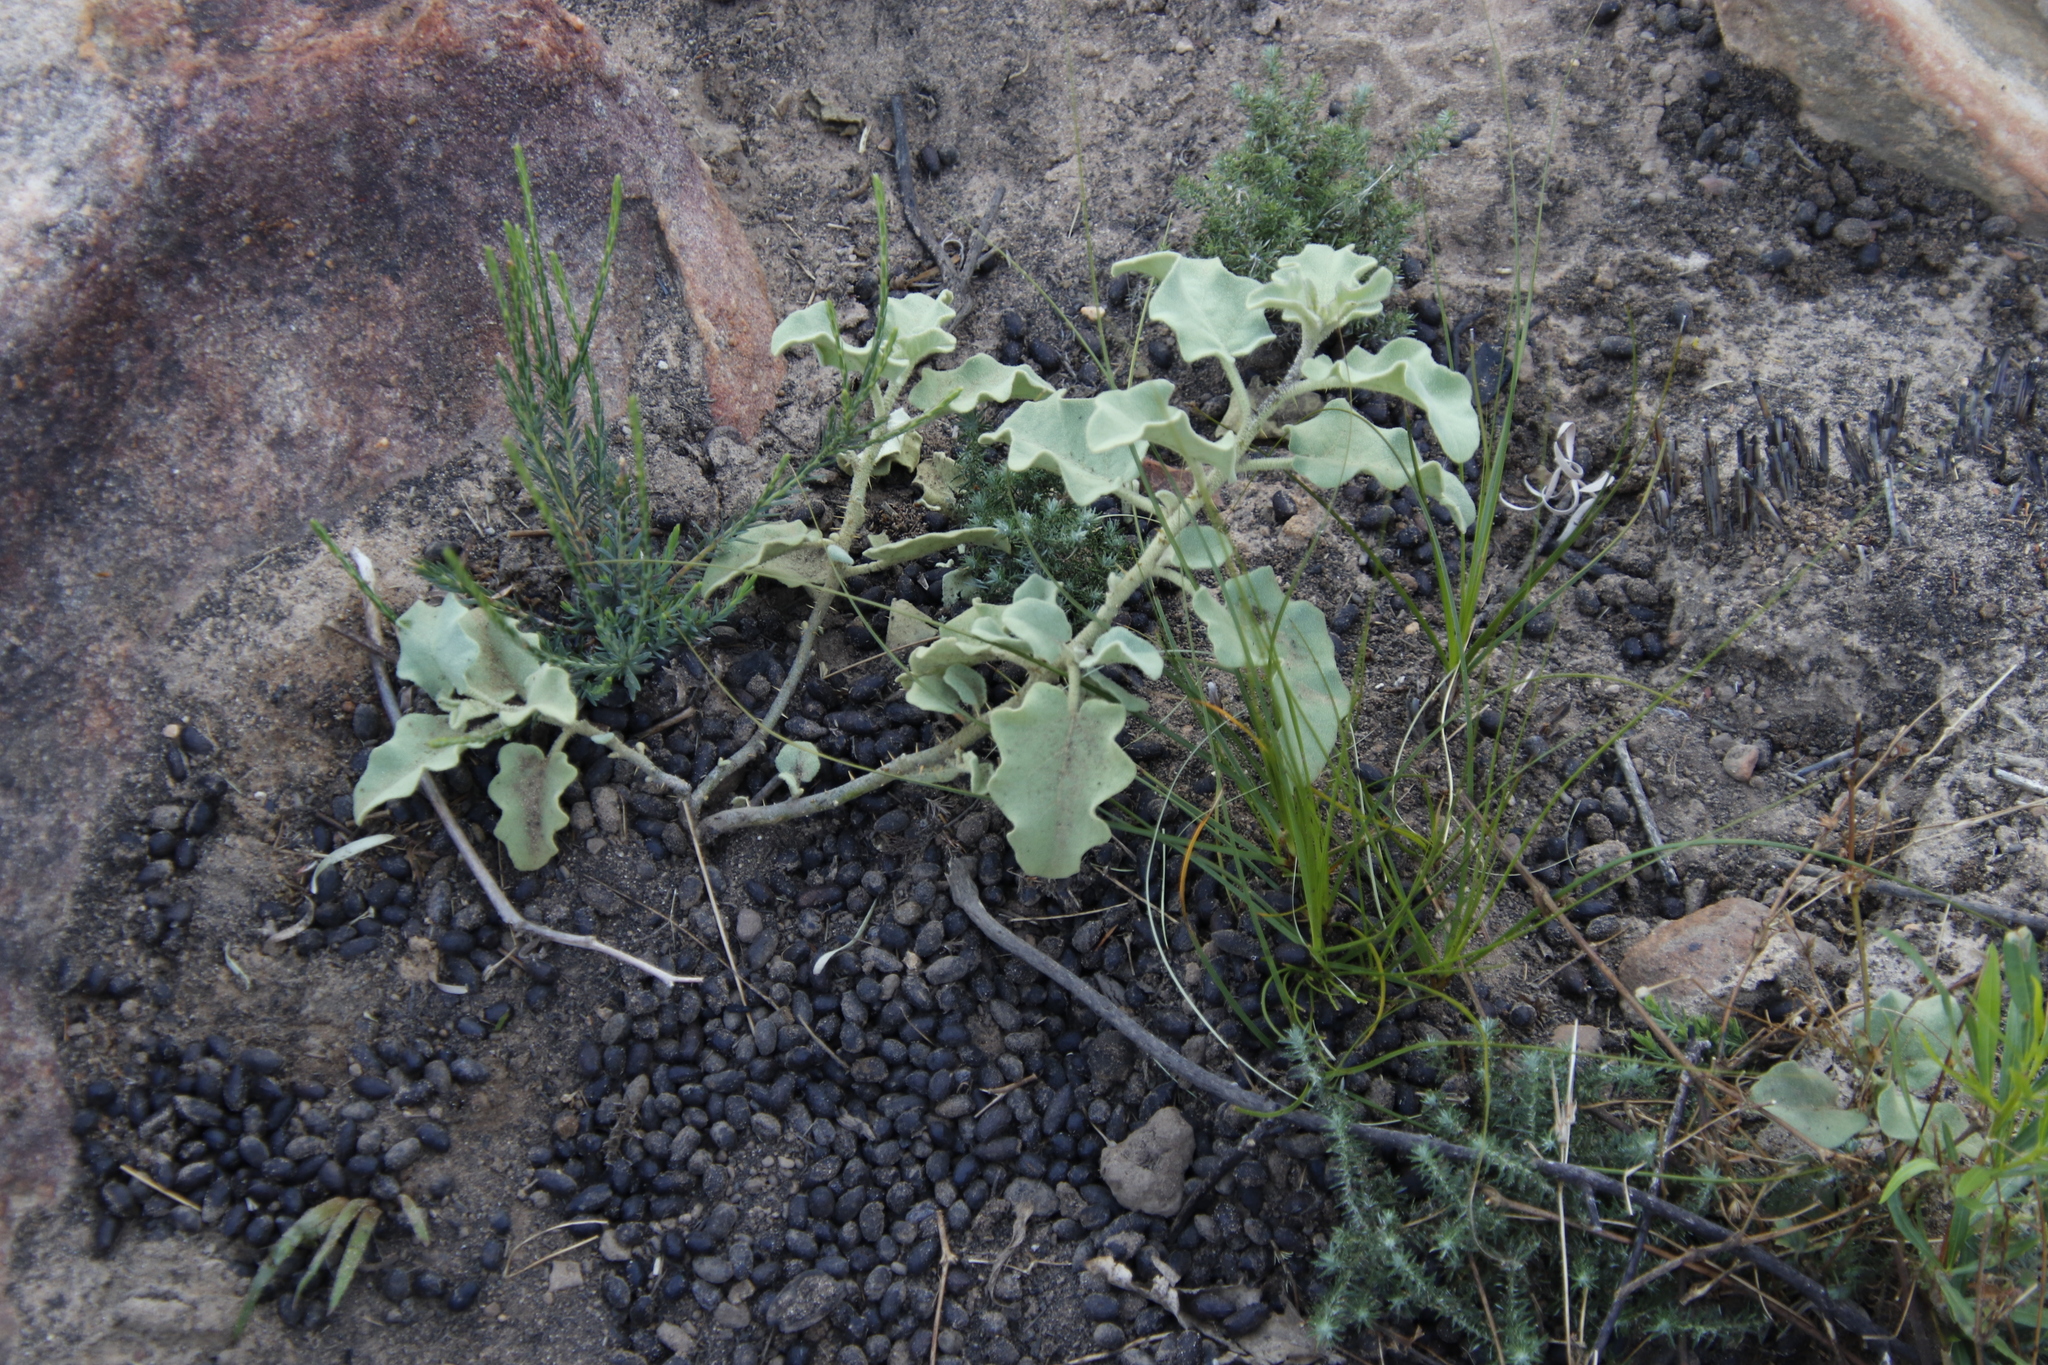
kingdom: Plantae
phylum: Tracheophyta
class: Magnoliopsida
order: Solanales
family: Solanaceae
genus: Solanum
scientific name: Solanum tomentosum
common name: Wild aubergine
